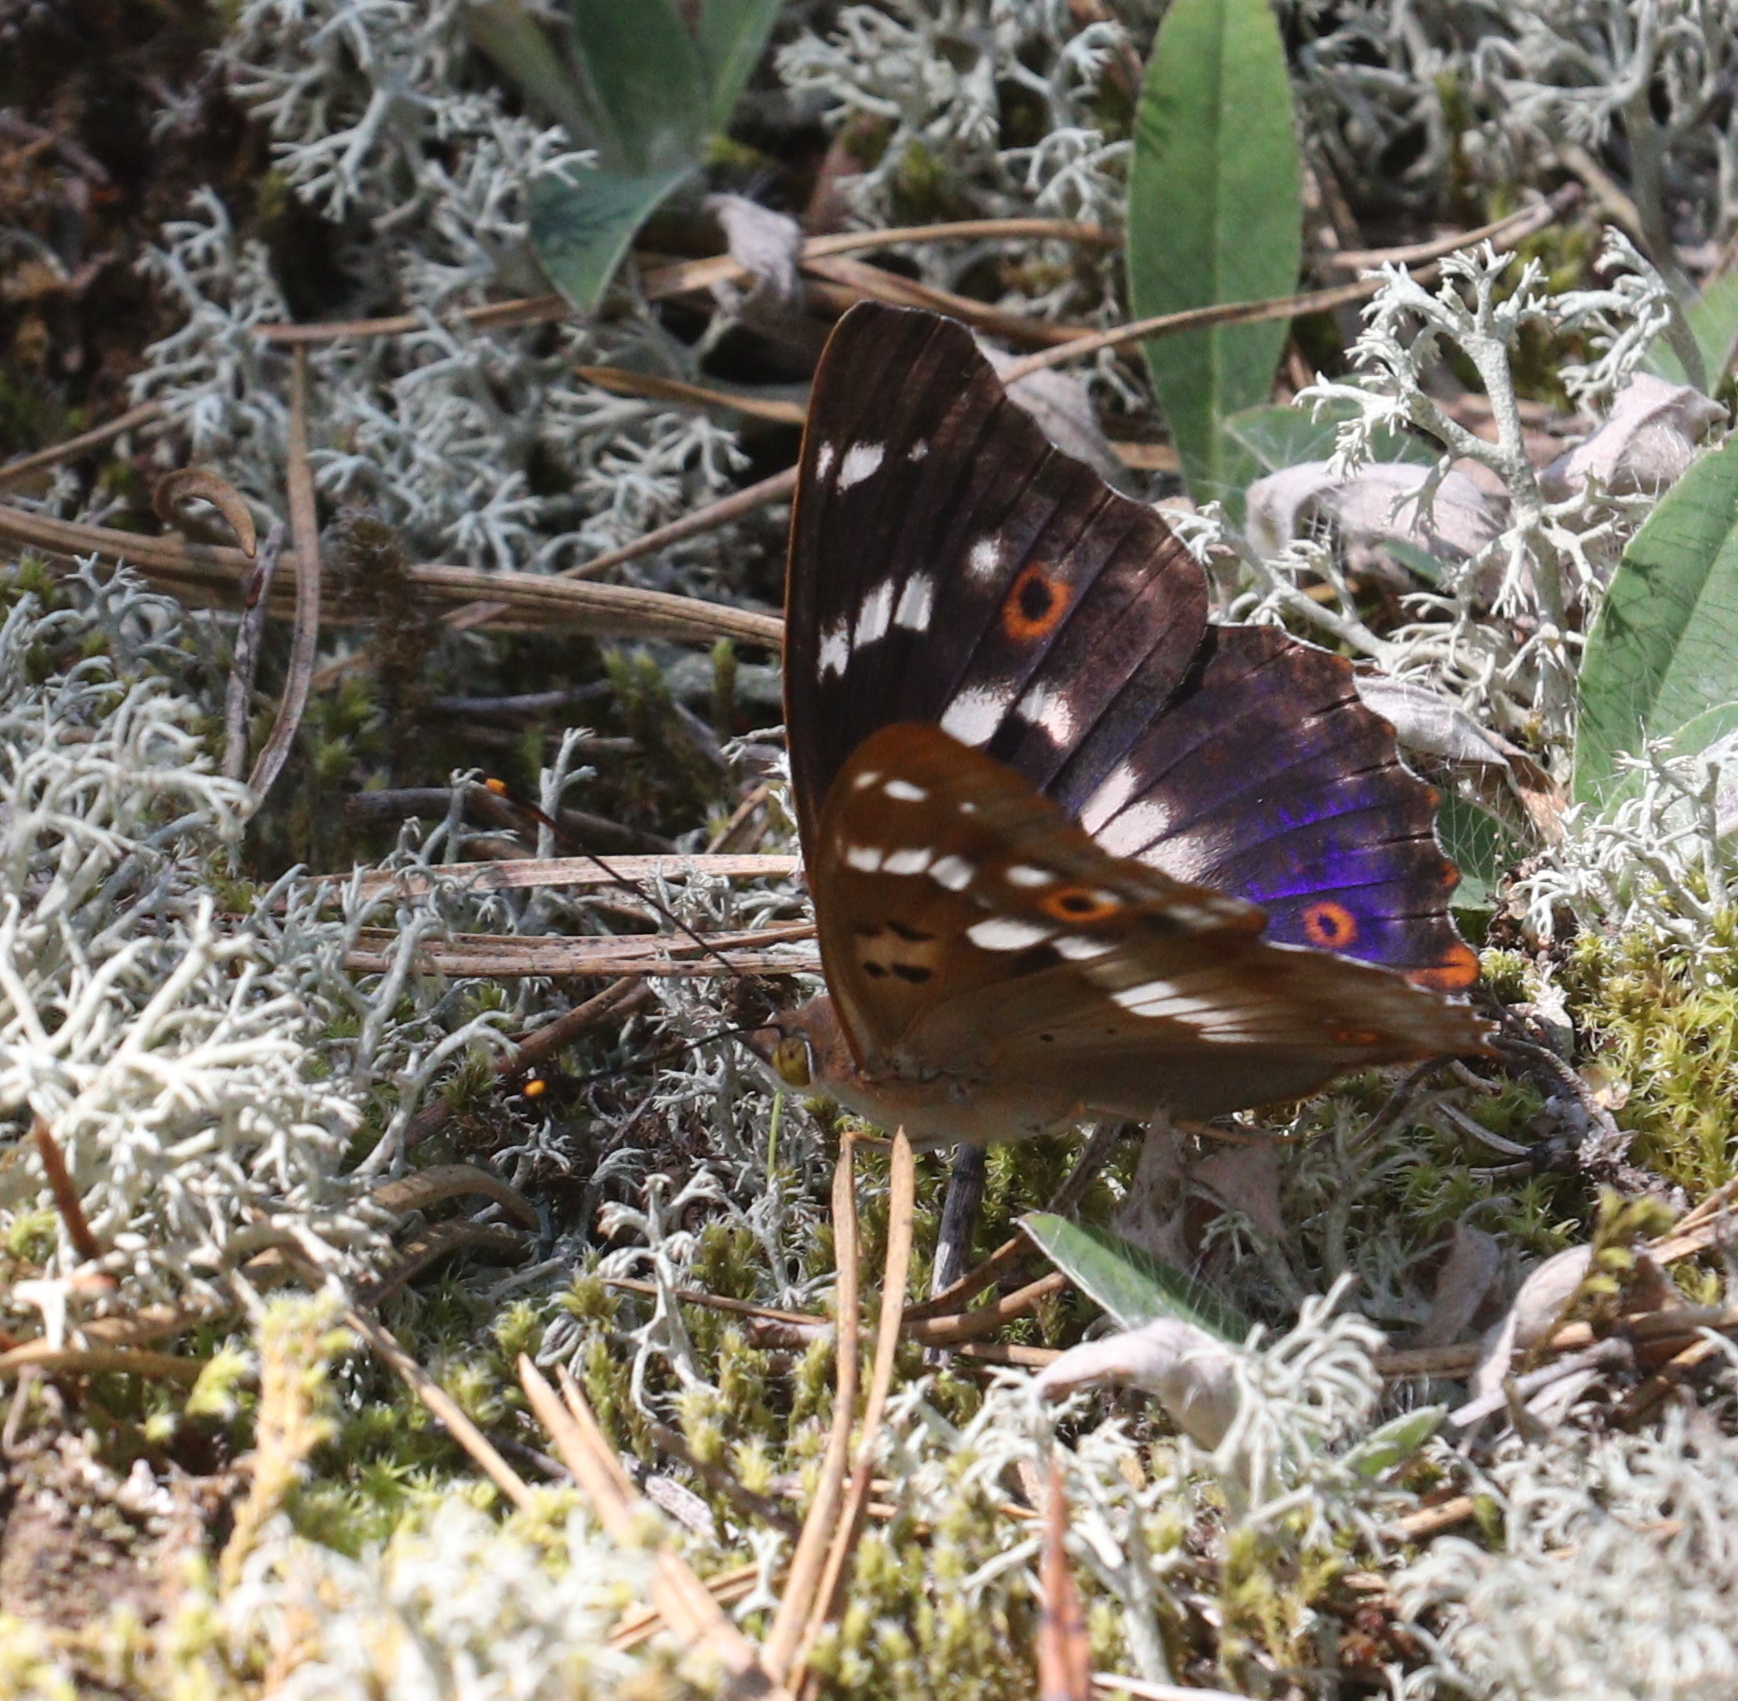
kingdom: Animalia
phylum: Arthropoda
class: Insecta
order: Lepidoptera
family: Nymphalidae
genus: Apatura
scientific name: Apatura ilia
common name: Lesser purple emperor
